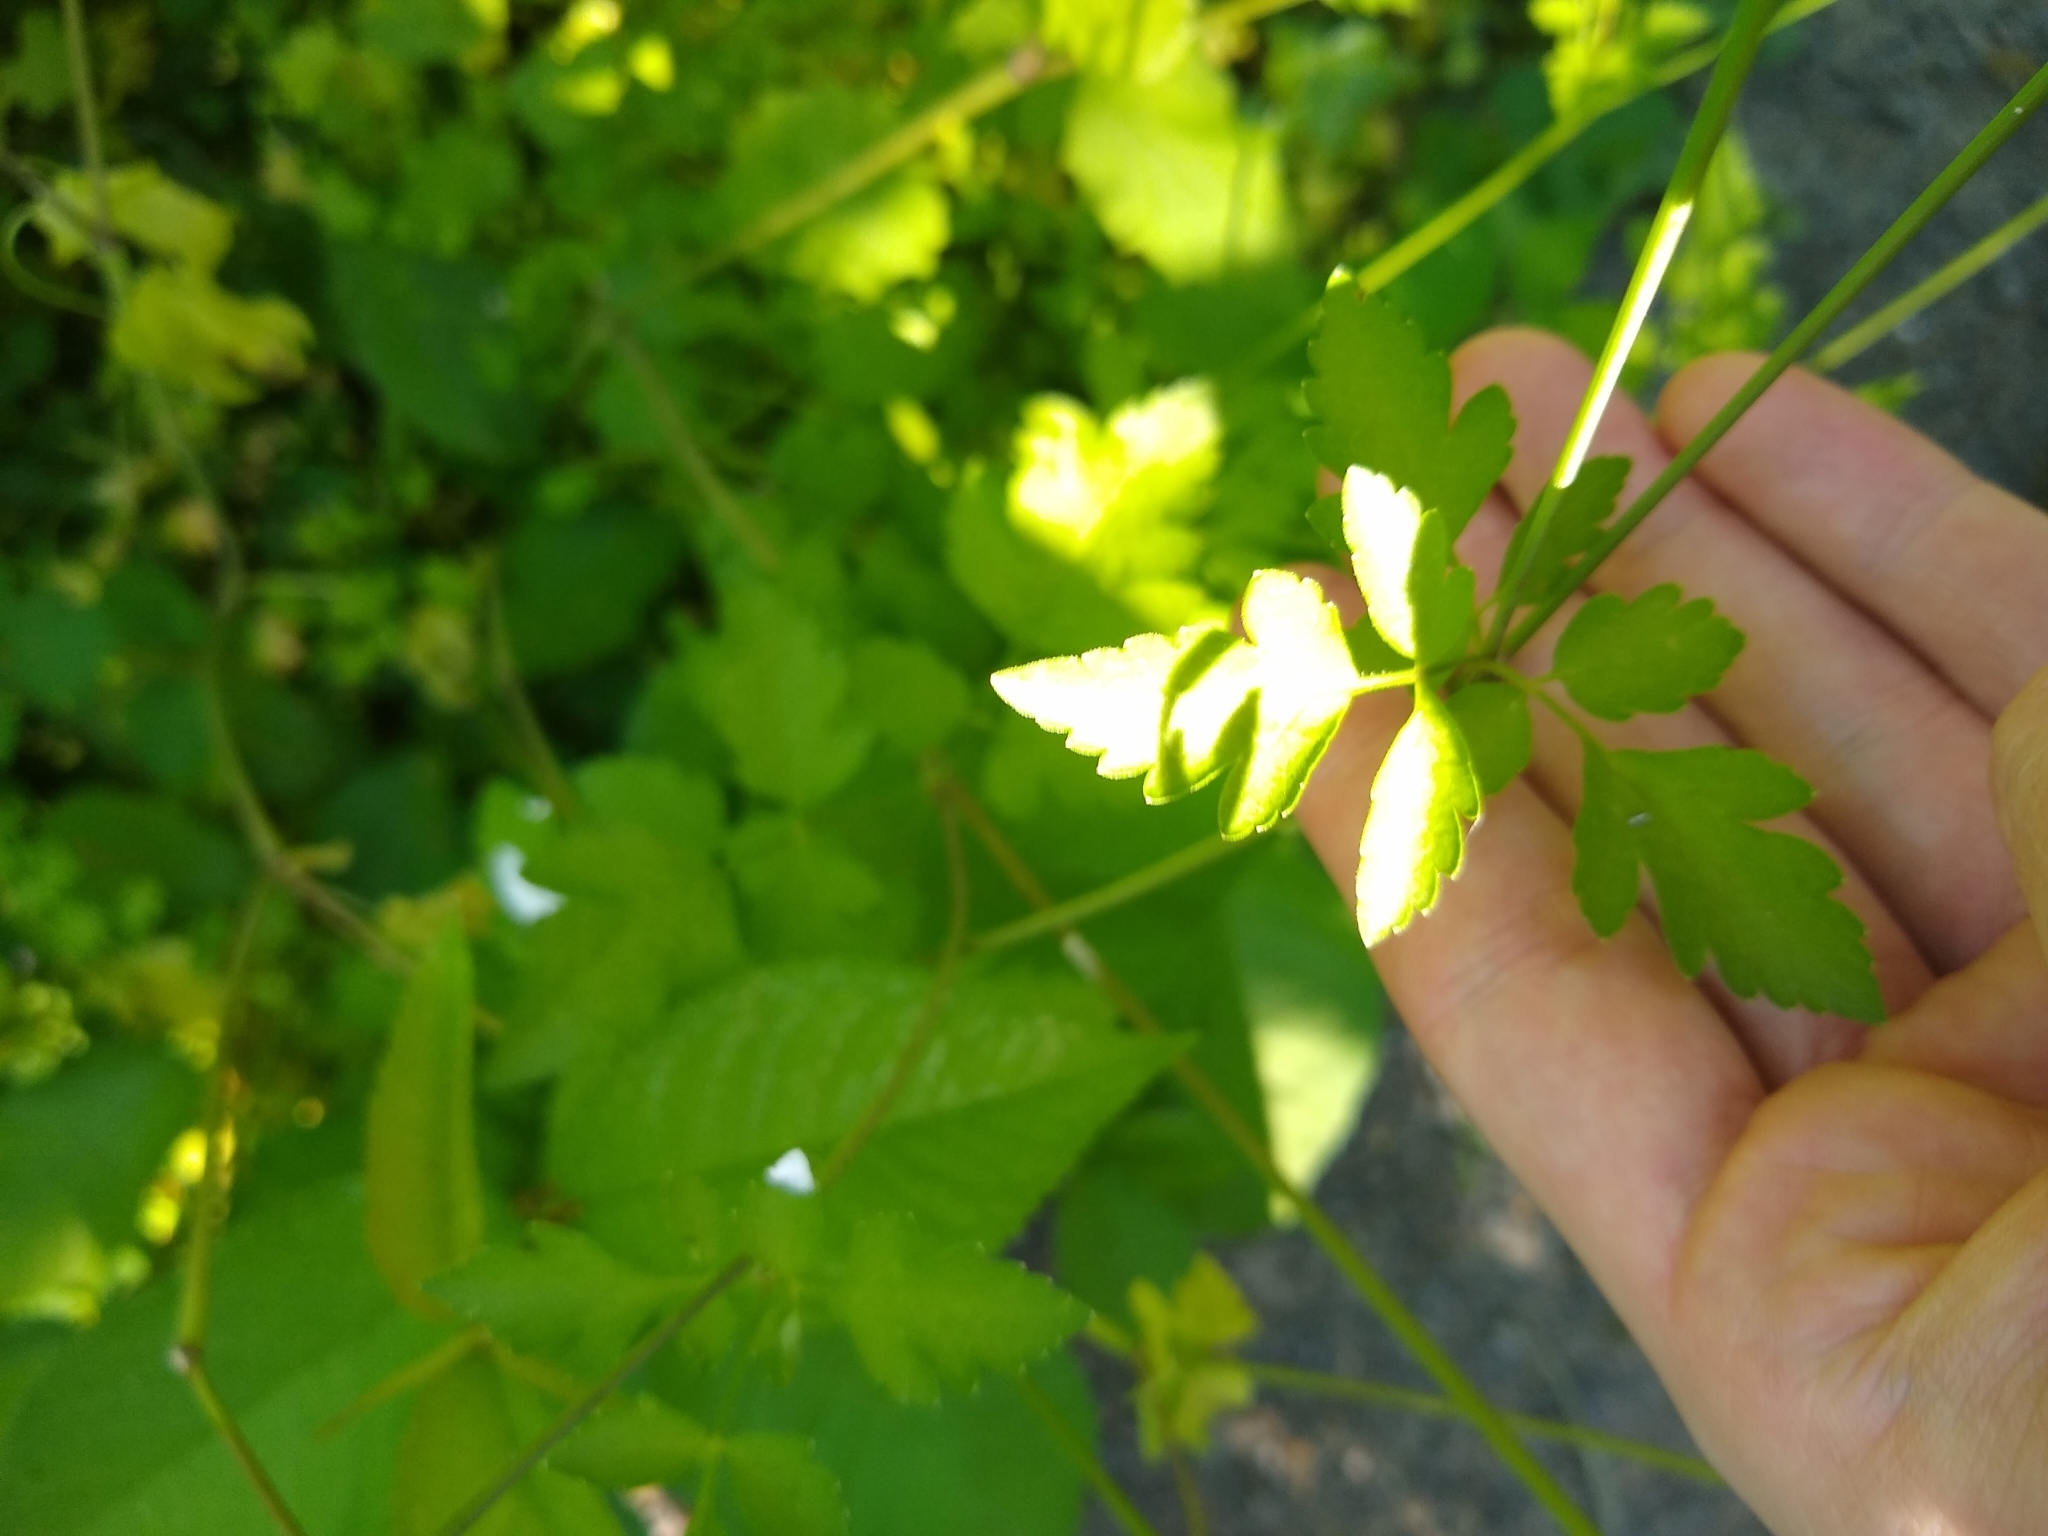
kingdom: Plantae
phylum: Tracheophyta
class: Magnoliopsida
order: Apiales
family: Apiaceae
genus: Osmorhiza
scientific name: Osmorhiza berteroi
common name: Mountain sweet cicely
